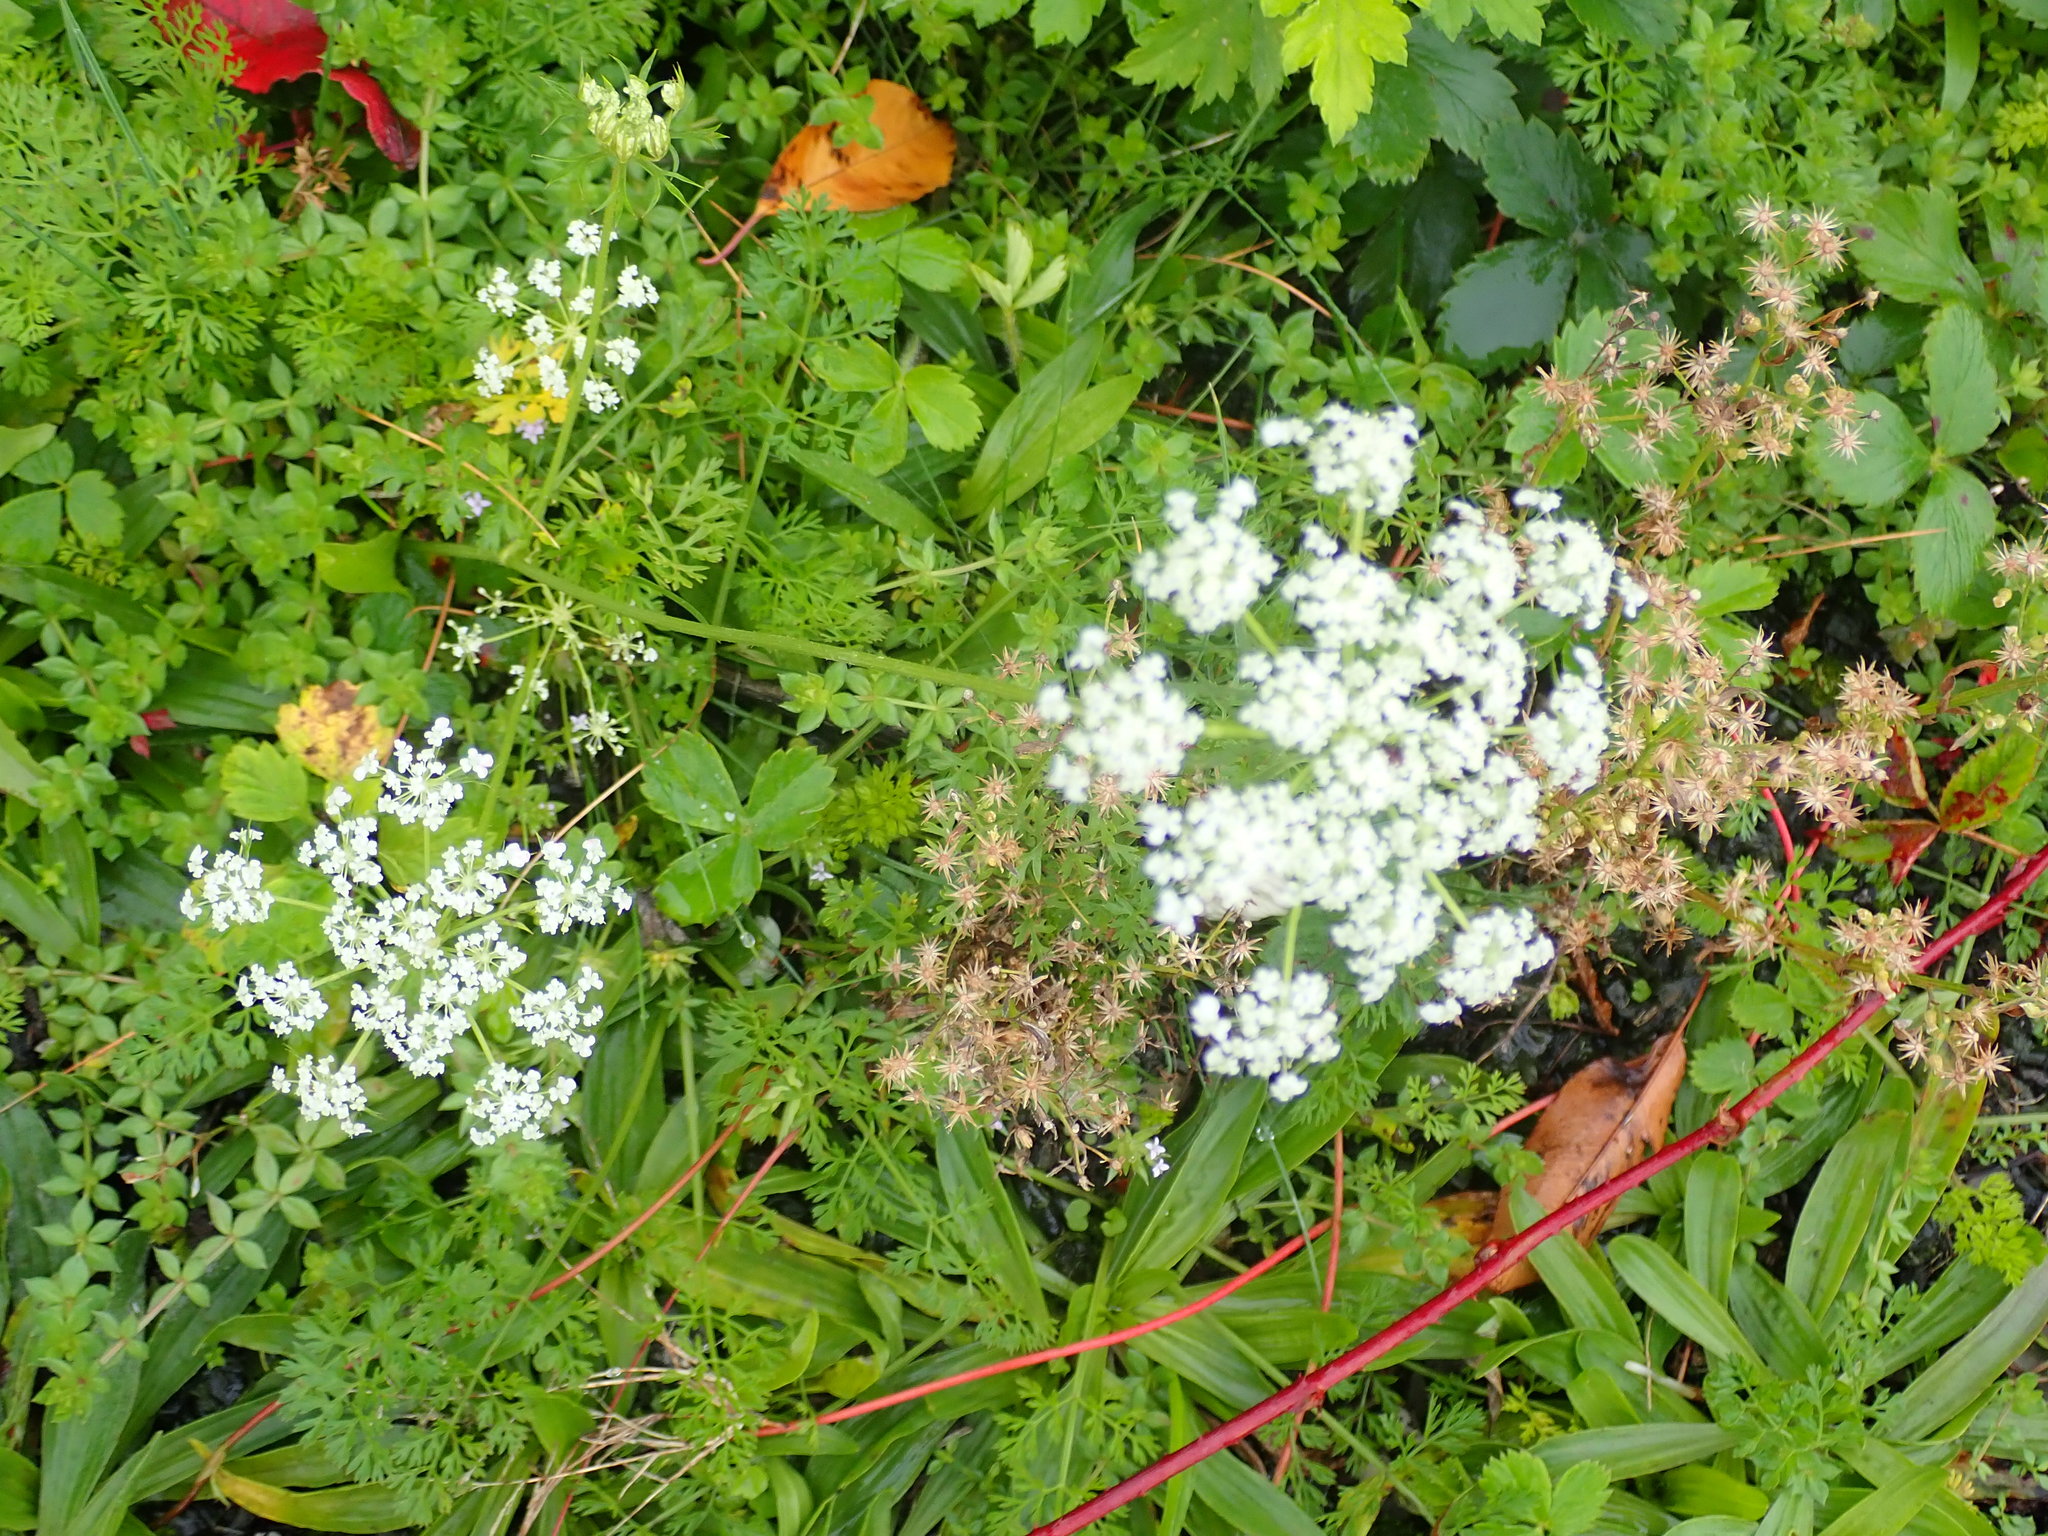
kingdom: Plantae
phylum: Tracheophyta
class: Magnoliopsida
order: Apiales
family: Apiaceae
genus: Daucus
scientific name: Daucus carota
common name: Wild carrot
